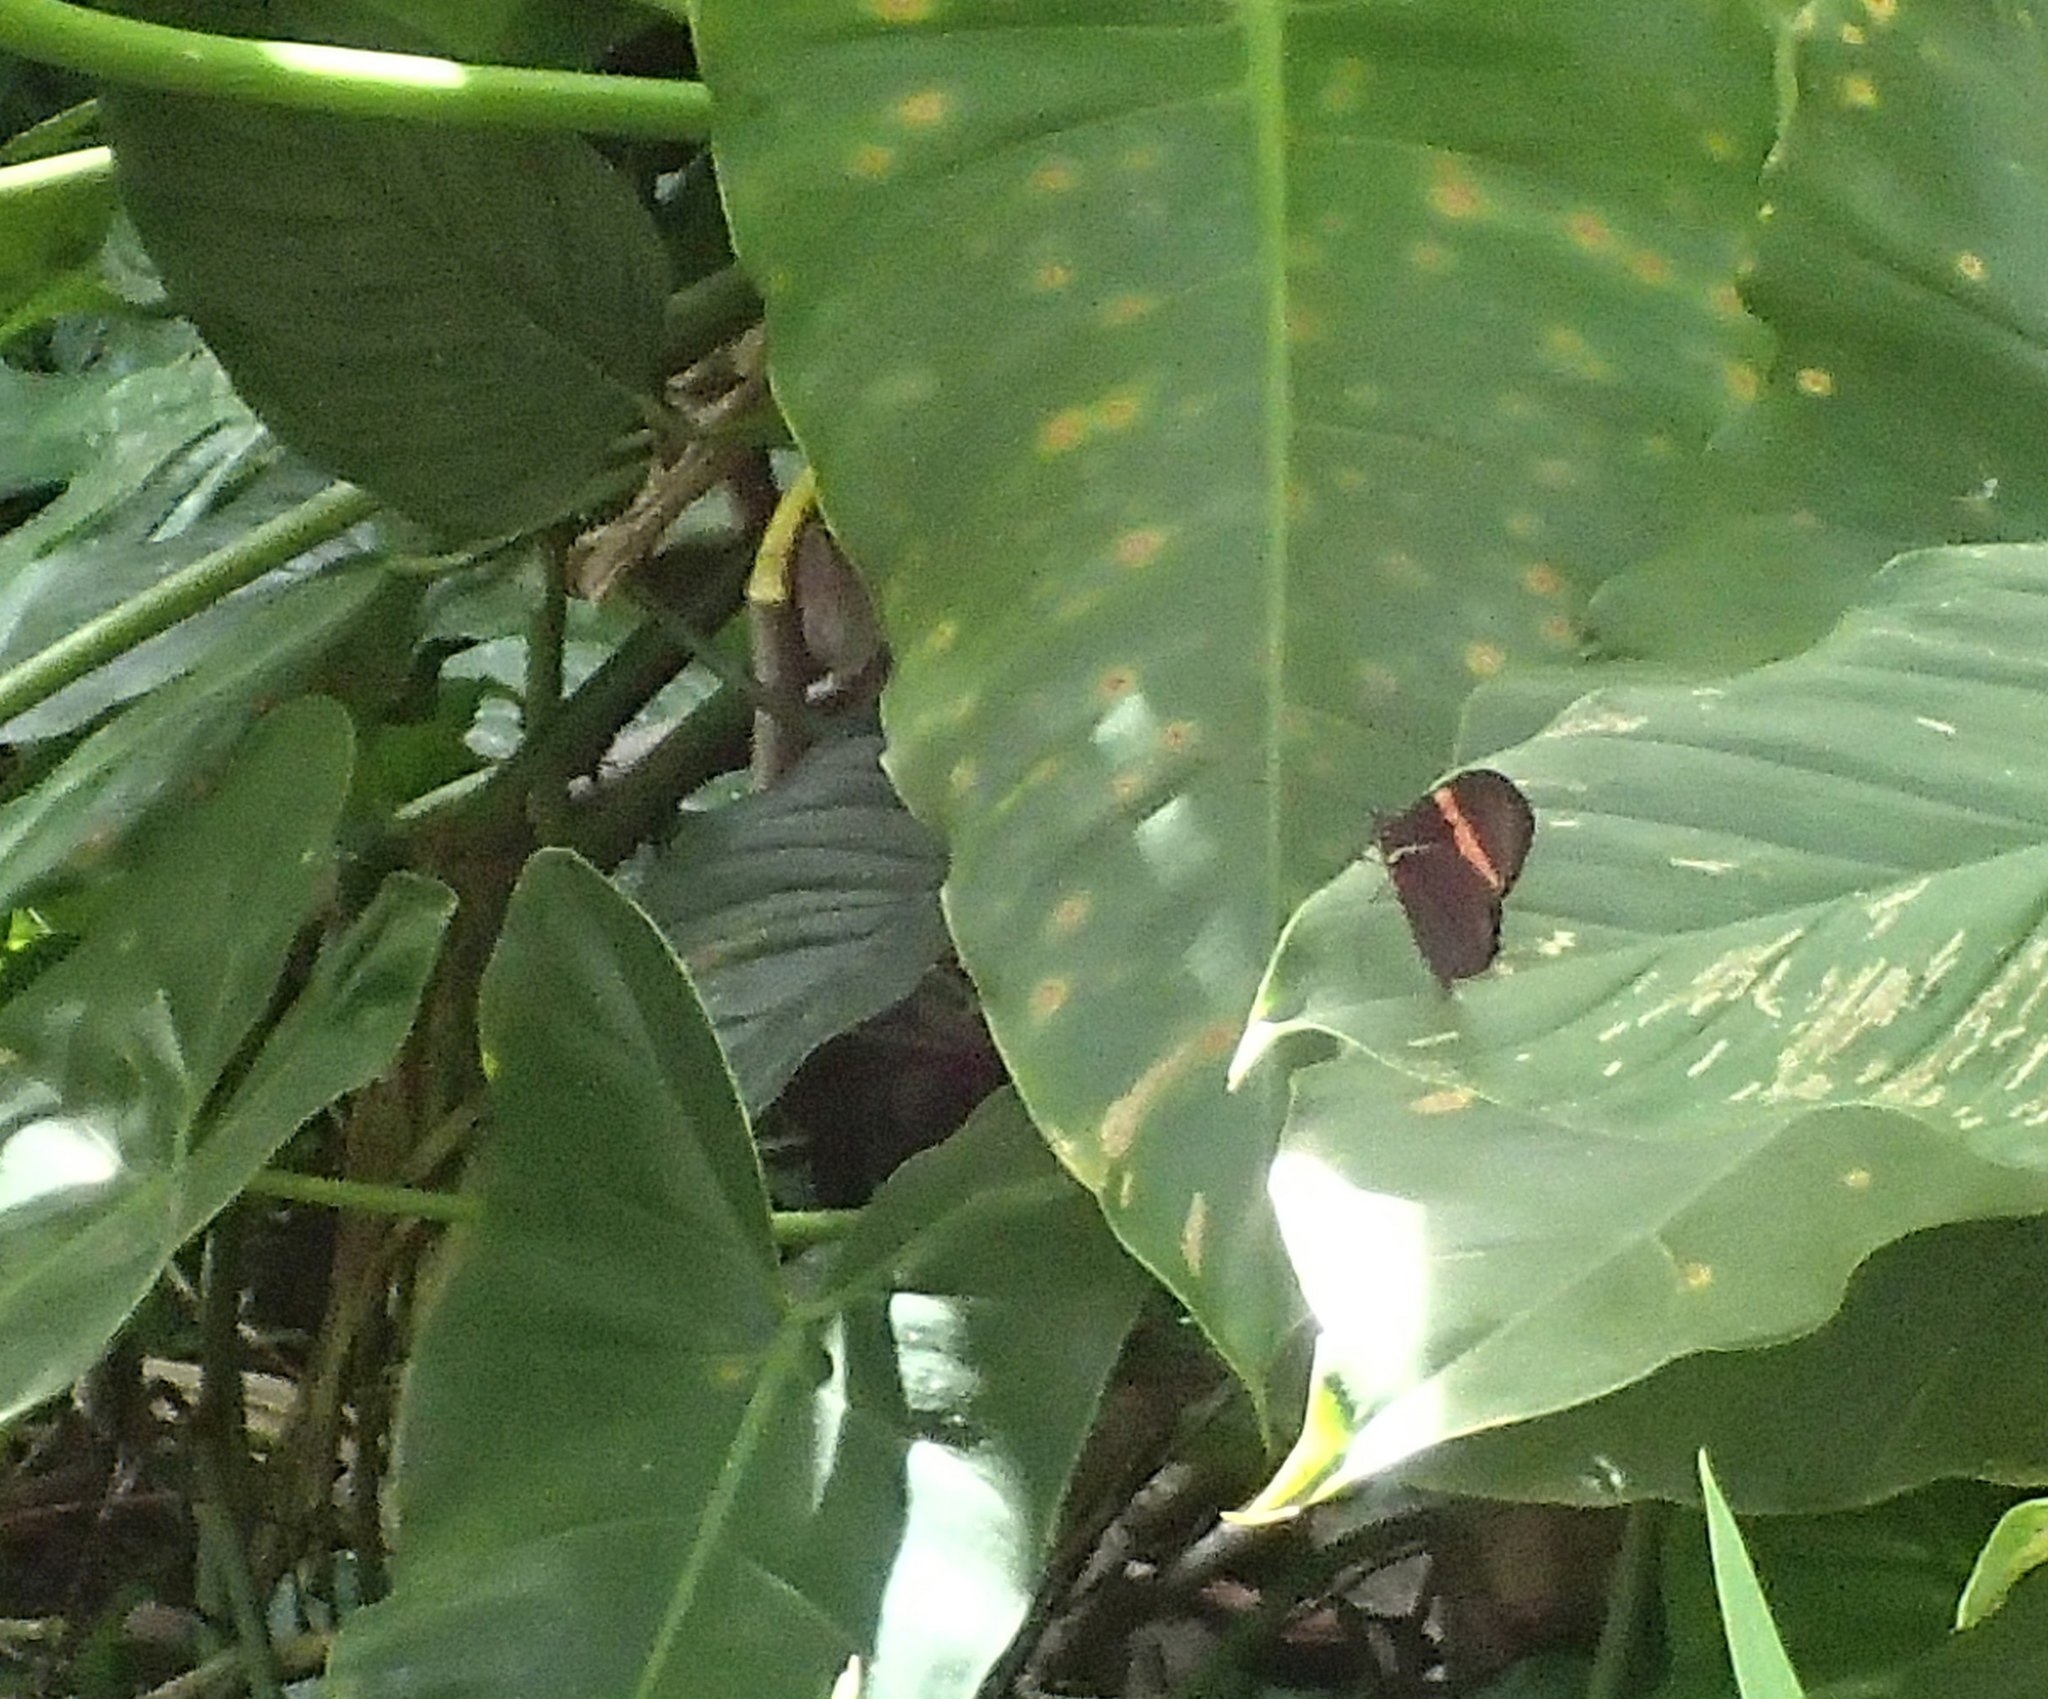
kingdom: Animalia
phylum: Arthropoda
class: Insecta
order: Lepidoptera
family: Nymphalidae
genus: Heliconius
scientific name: Heliconius erato
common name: Common patch longwing
